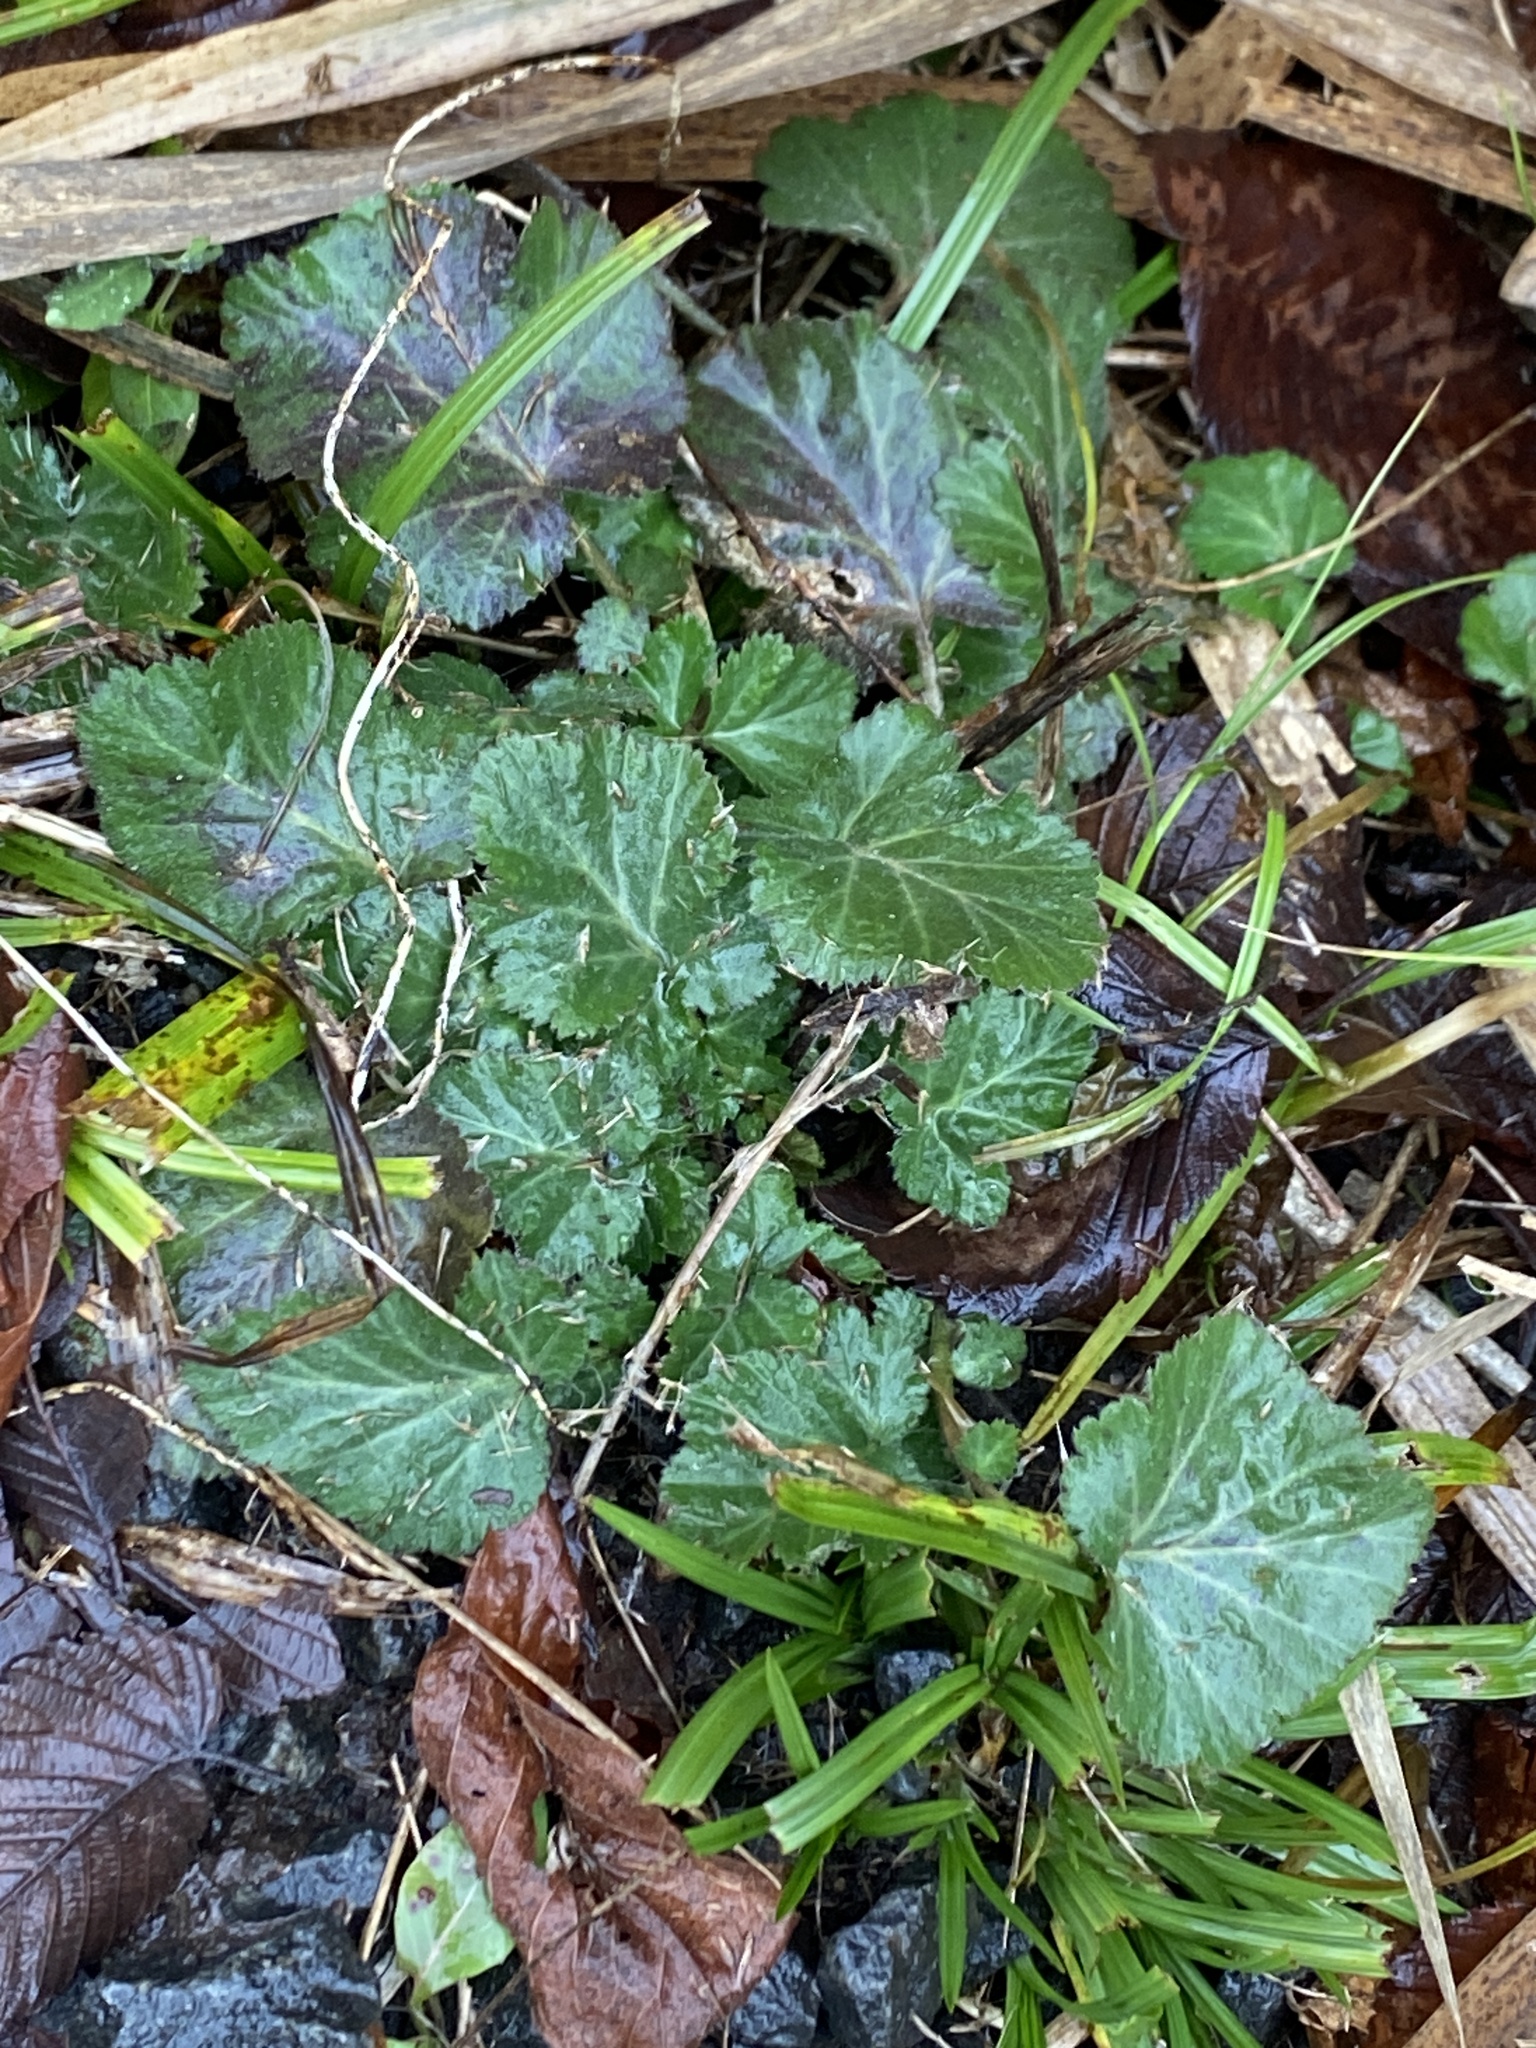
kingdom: Plantae
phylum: Tracheophyta
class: Magnoliopsida
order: Rosales
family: Rosaceae
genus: Geum
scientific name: Geum canadense
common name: White avens
